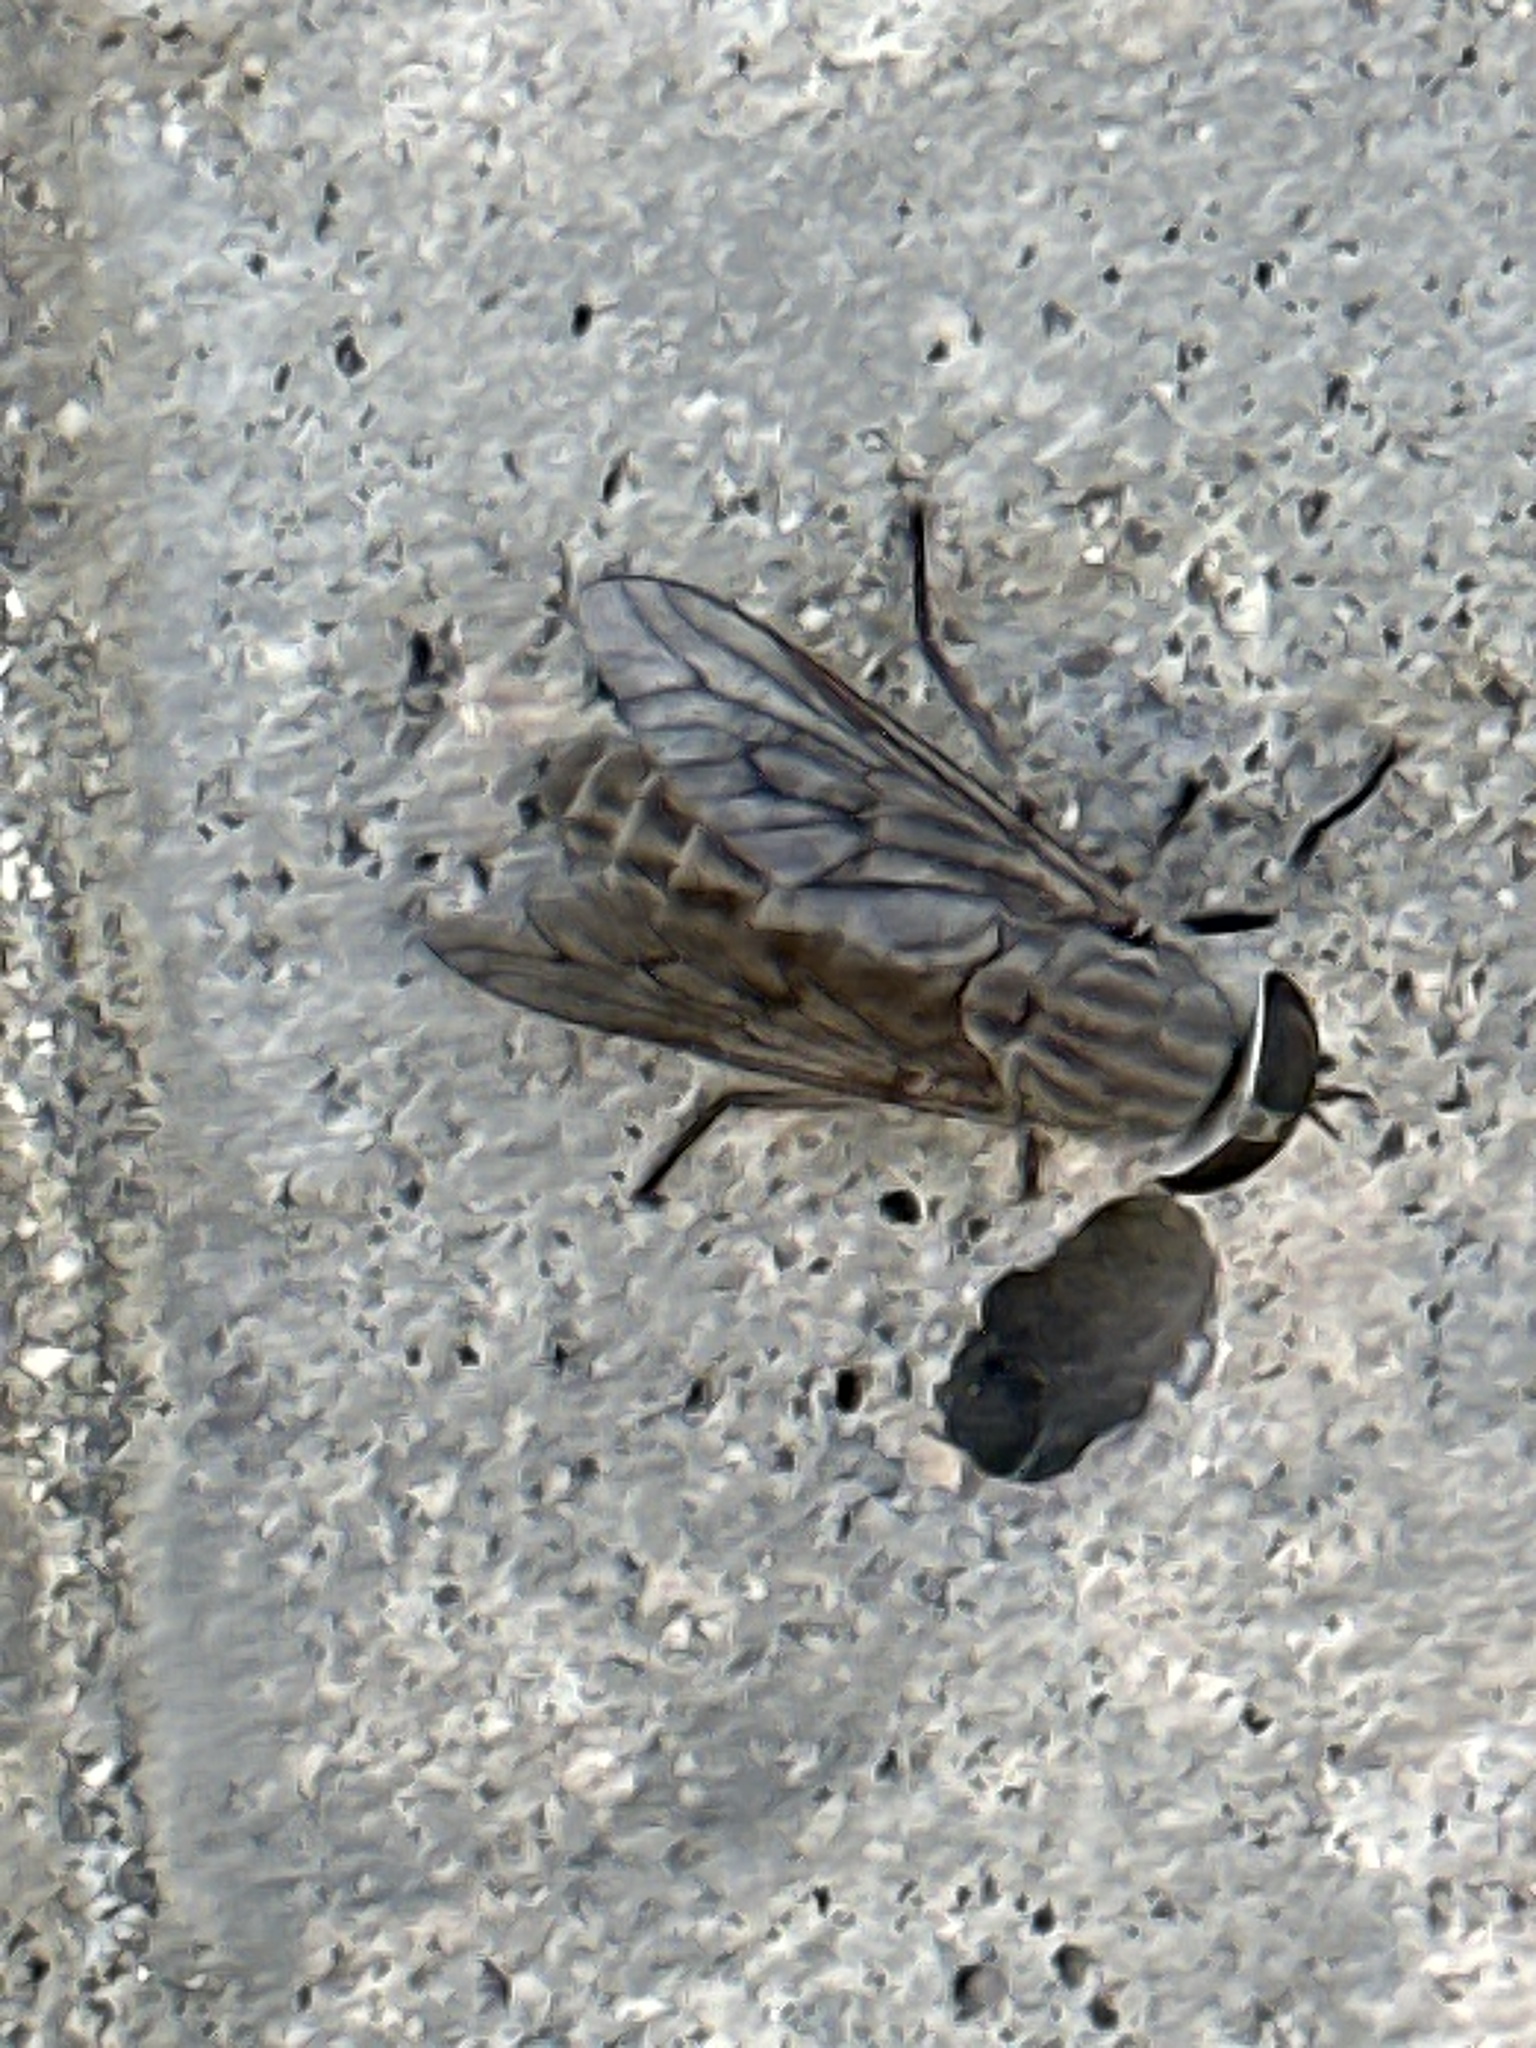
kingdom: Animalia
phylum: Arthropoda
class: Insecta
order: Diptera
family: Tabanidae
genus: Tabanus
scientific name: Tabanus lineola
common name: Striped horse fly
